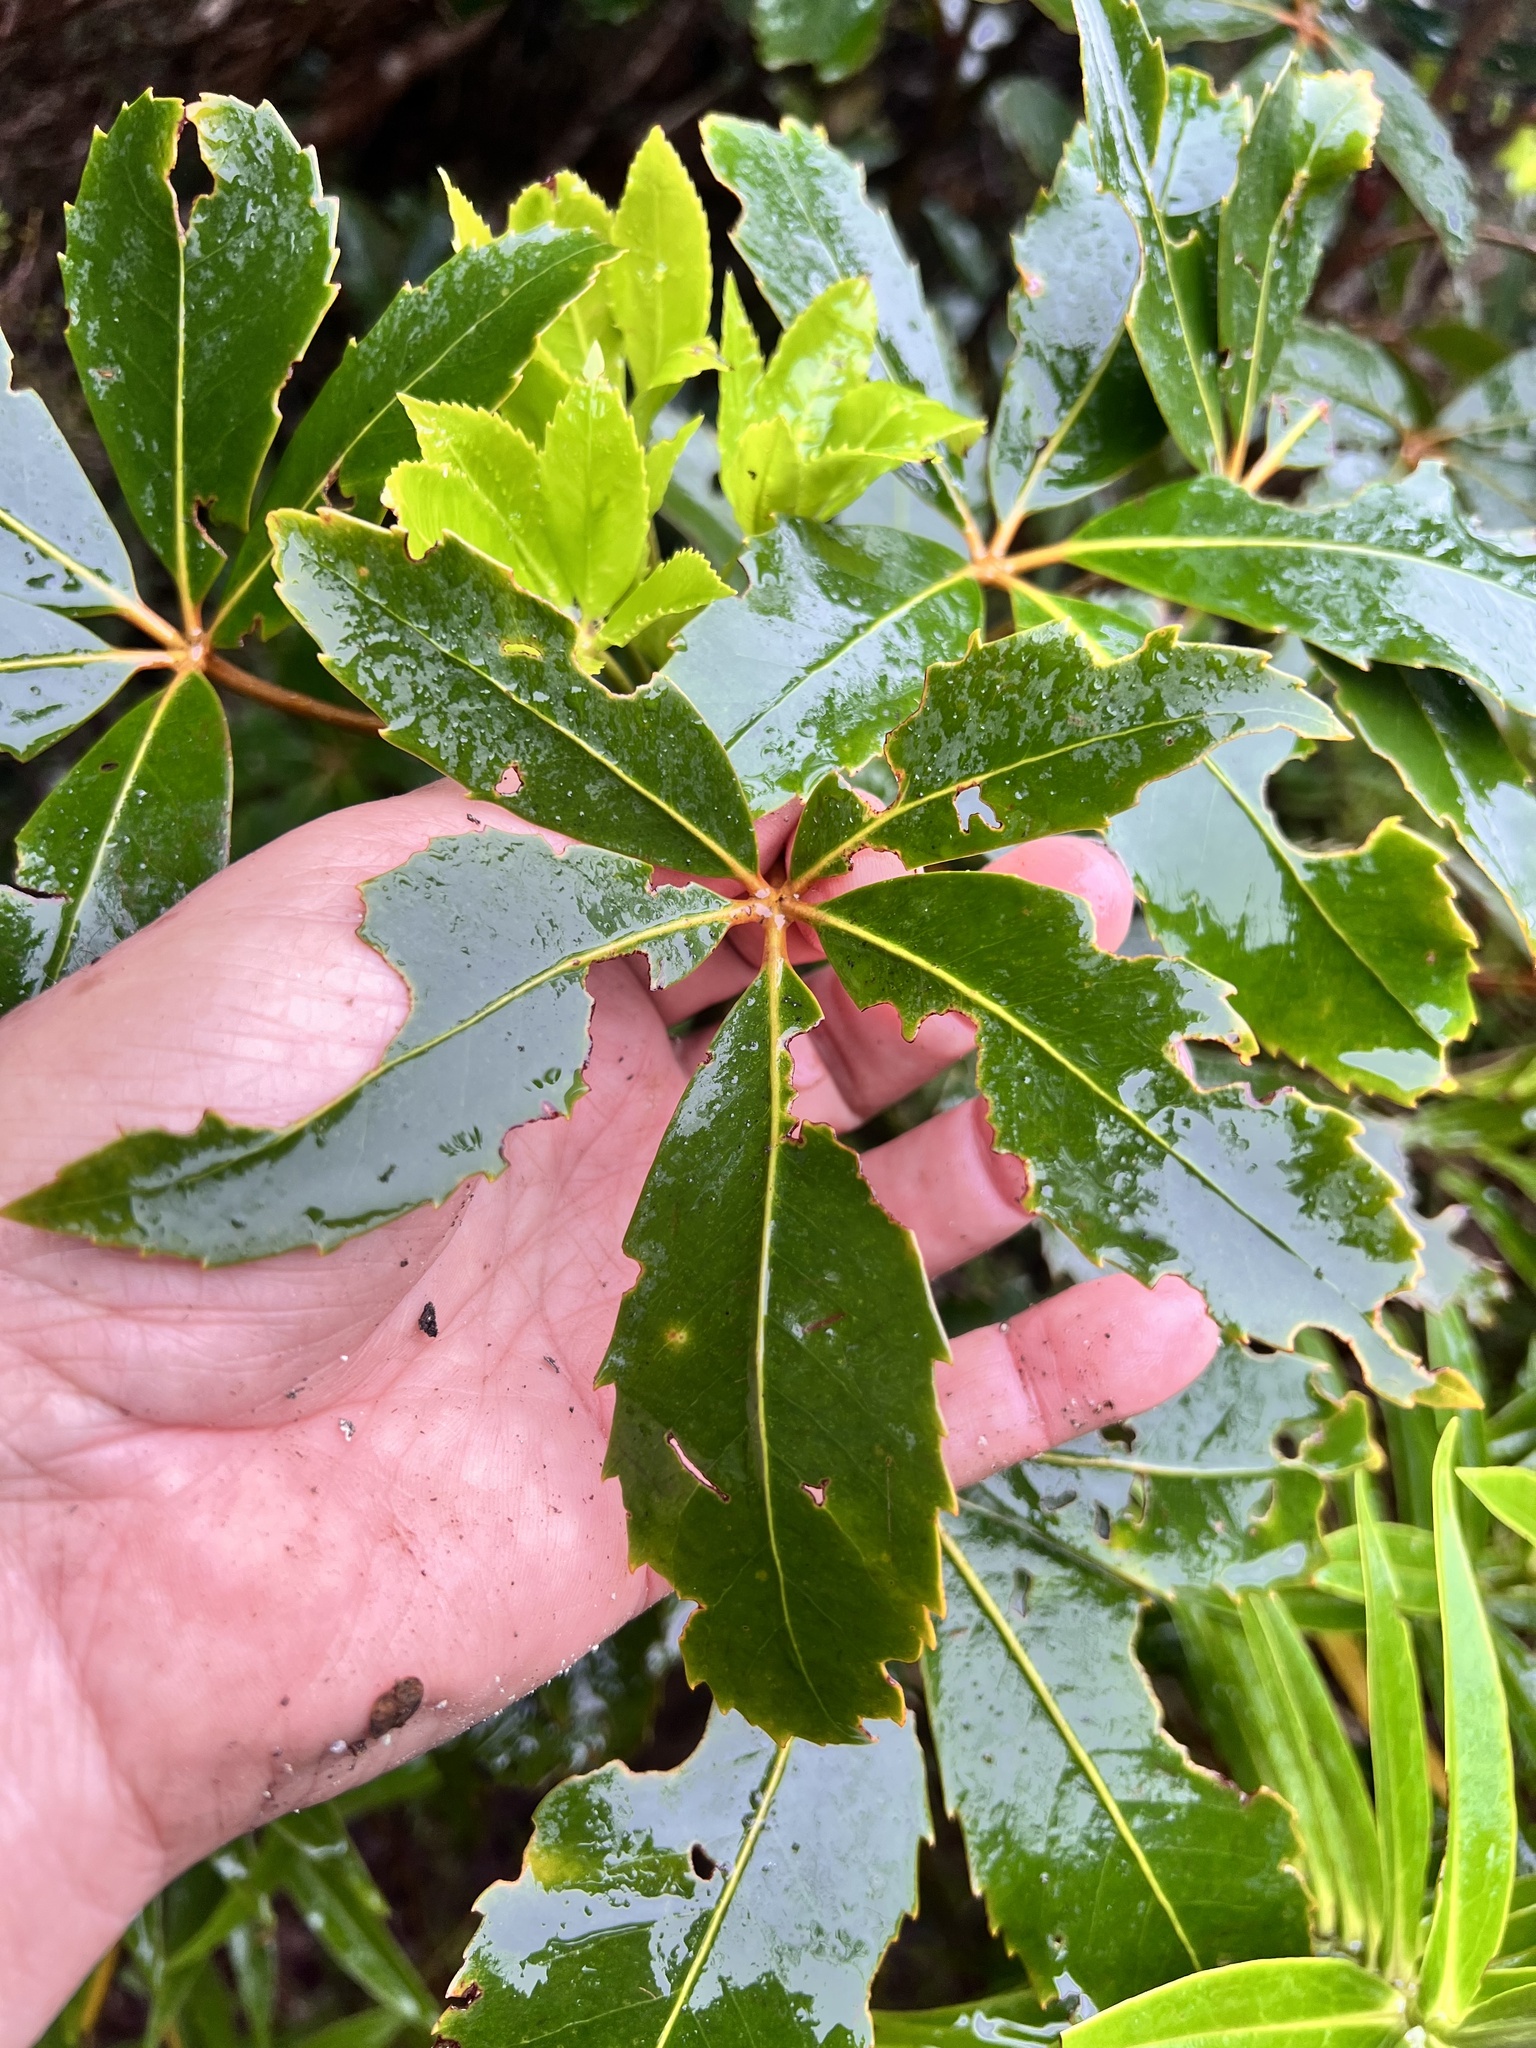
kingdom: Plantae
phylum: Tracheophyta
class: Magnoliopsida
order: Apiales
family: Araliaceae
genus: Neopanax
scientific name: Neopanax colensoi
